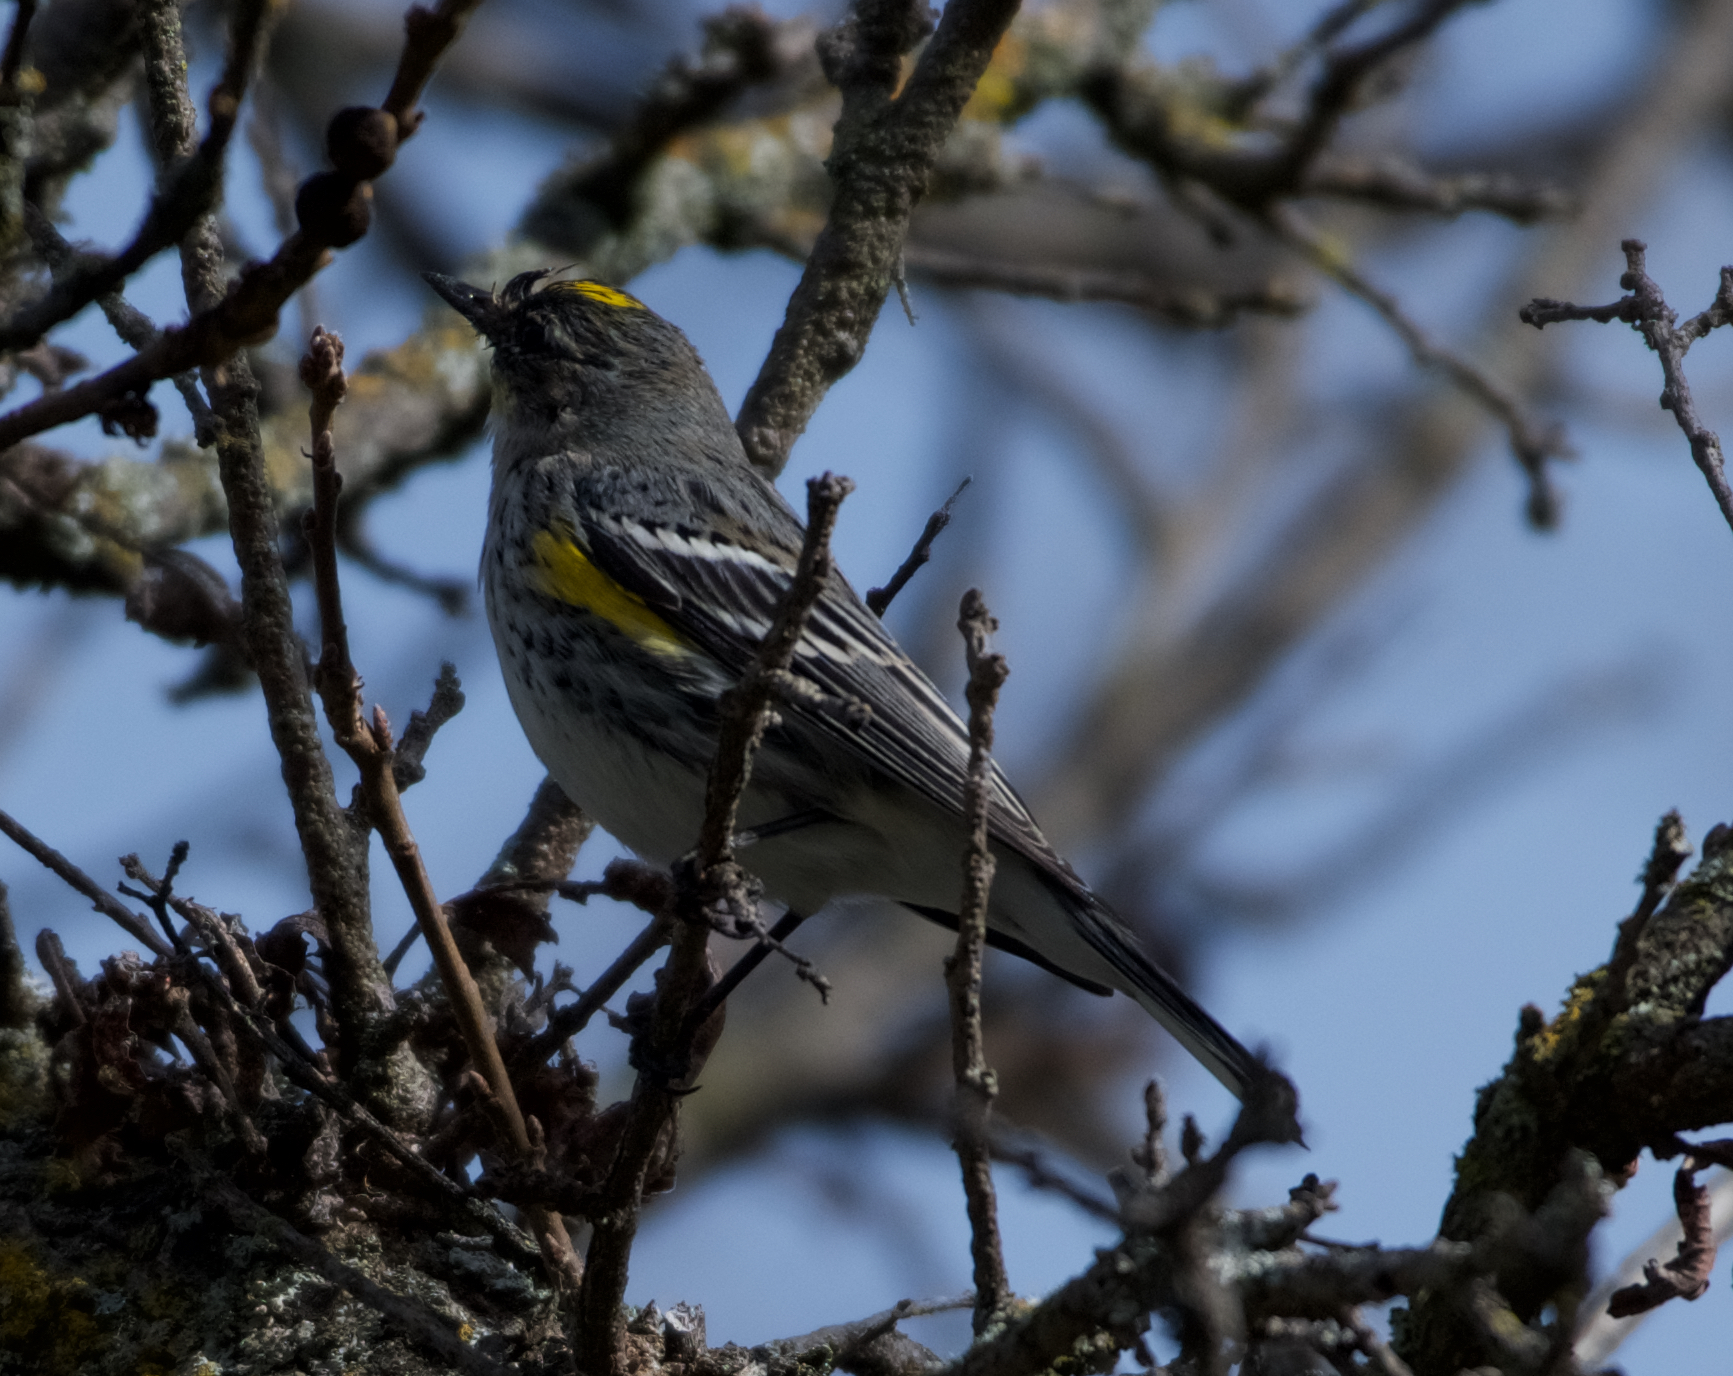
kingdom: Animalia
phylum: Chordata
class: Aves
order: Passeriformes
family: Parulidae
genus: Setophaga
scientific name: Setophaga coronata
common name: Myrtle warbler
